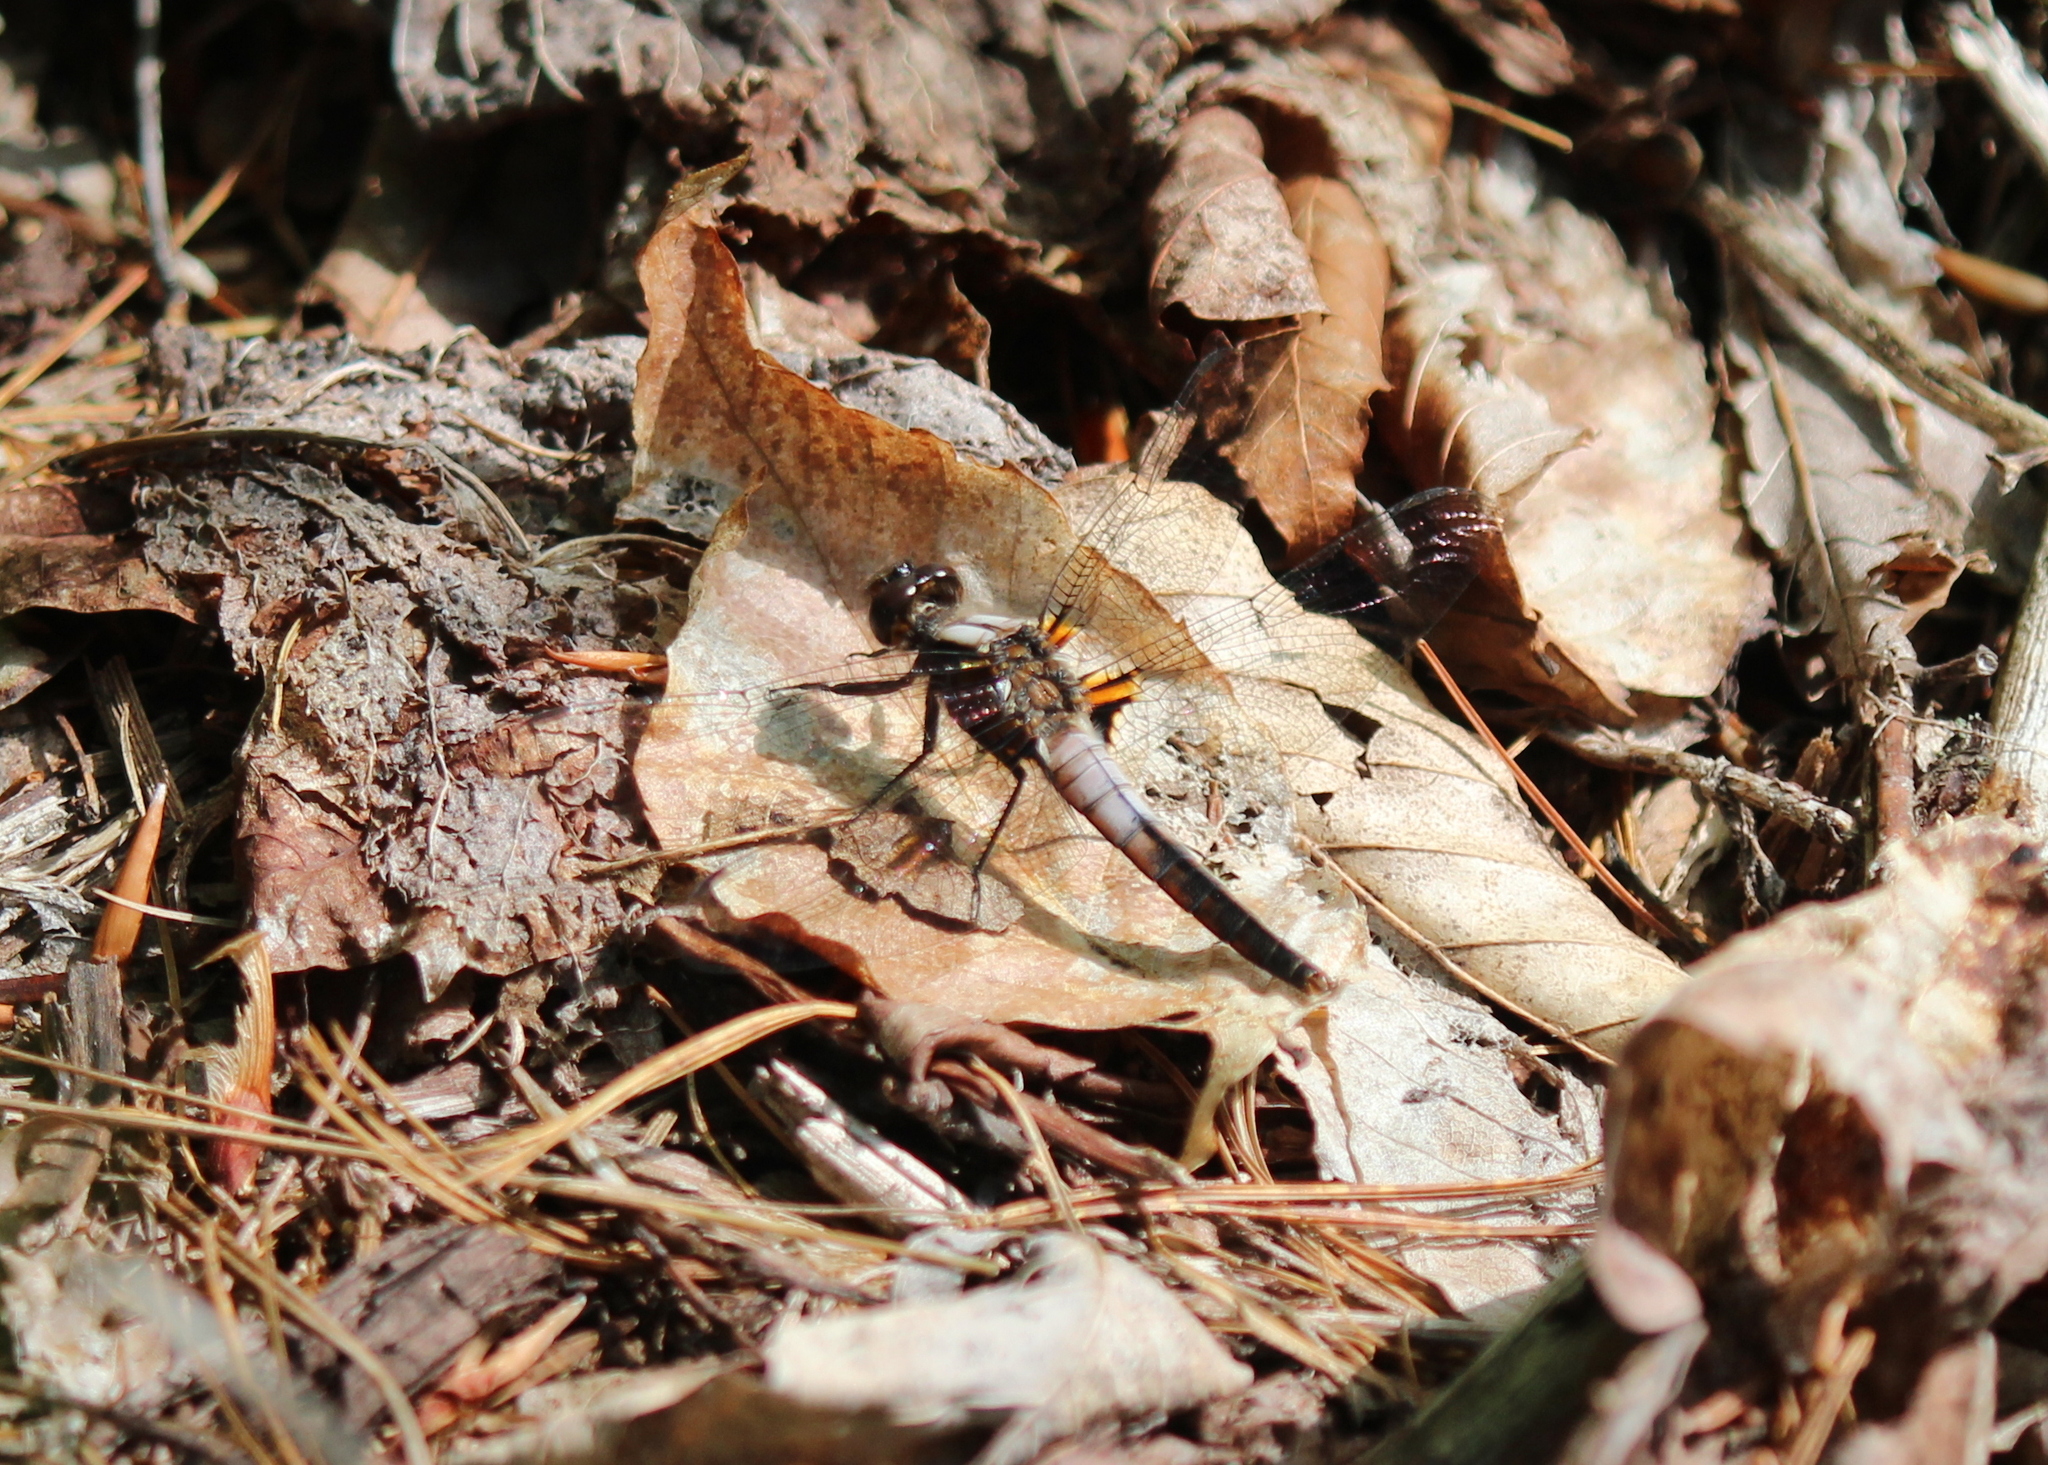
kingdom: Animalia
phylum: Arthropoda
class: Insecta
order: Odonata
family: Libellulidae
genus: Ladona
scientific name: Ladona julia
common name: Chalk-fronted corporal
